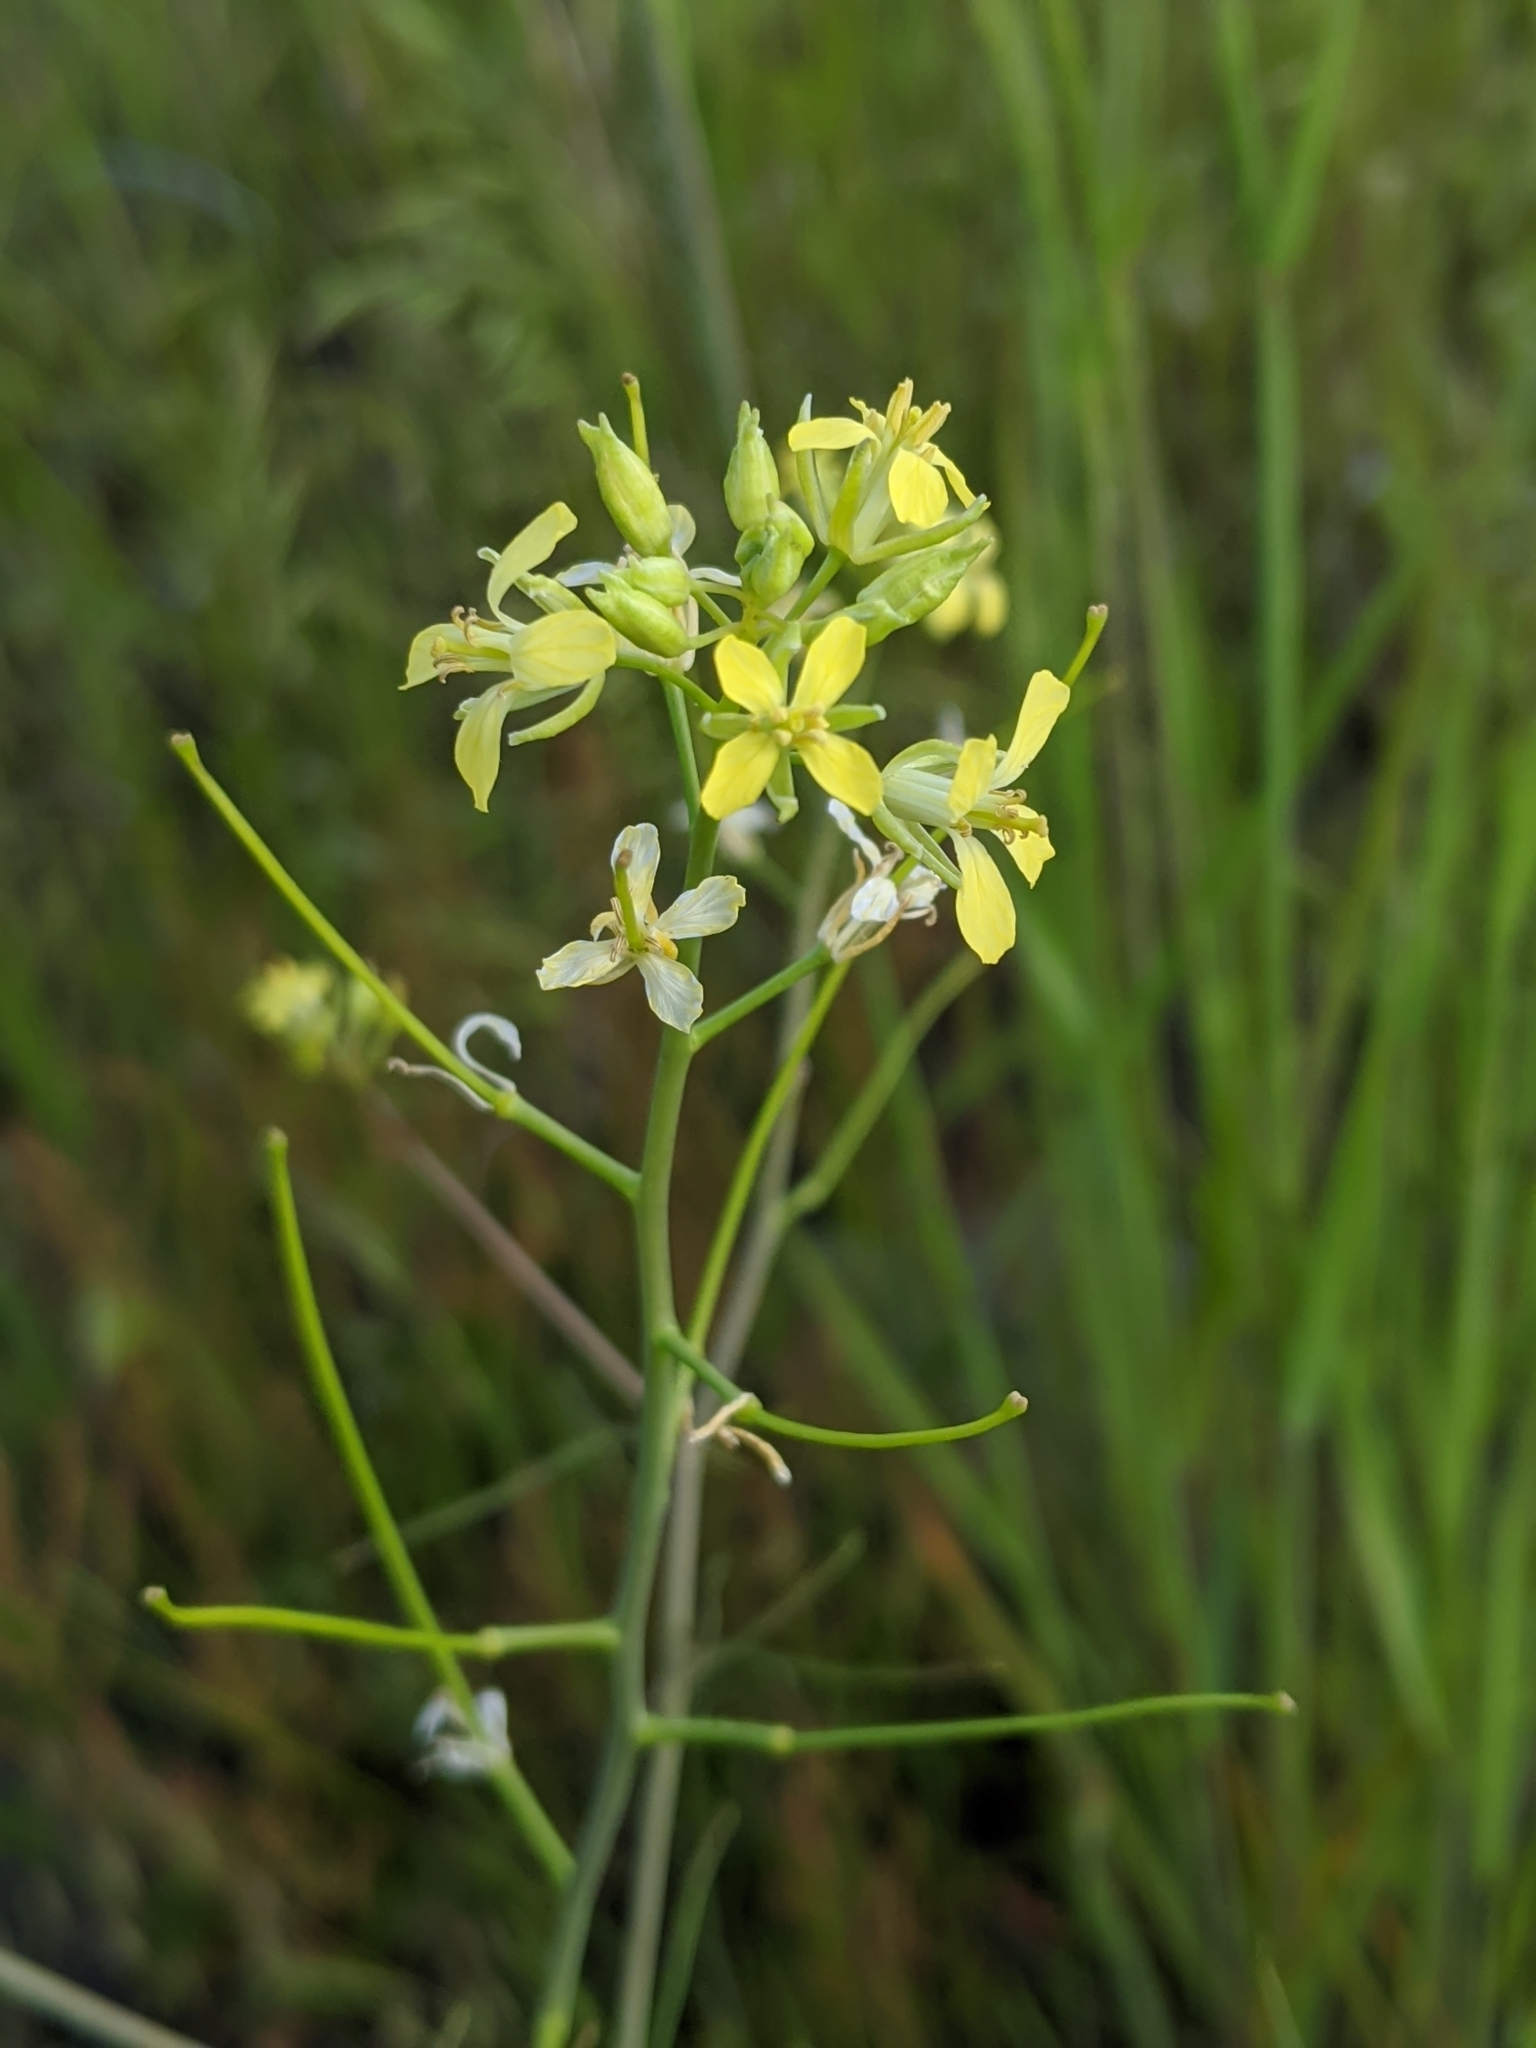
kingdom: Plantae
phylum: Tracheophyta
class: Magnoliopsida
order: Brassicales
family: Brassicaceae
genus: Sisymbrium
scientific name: Sisymbrium altissimum
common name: Tall rocket
